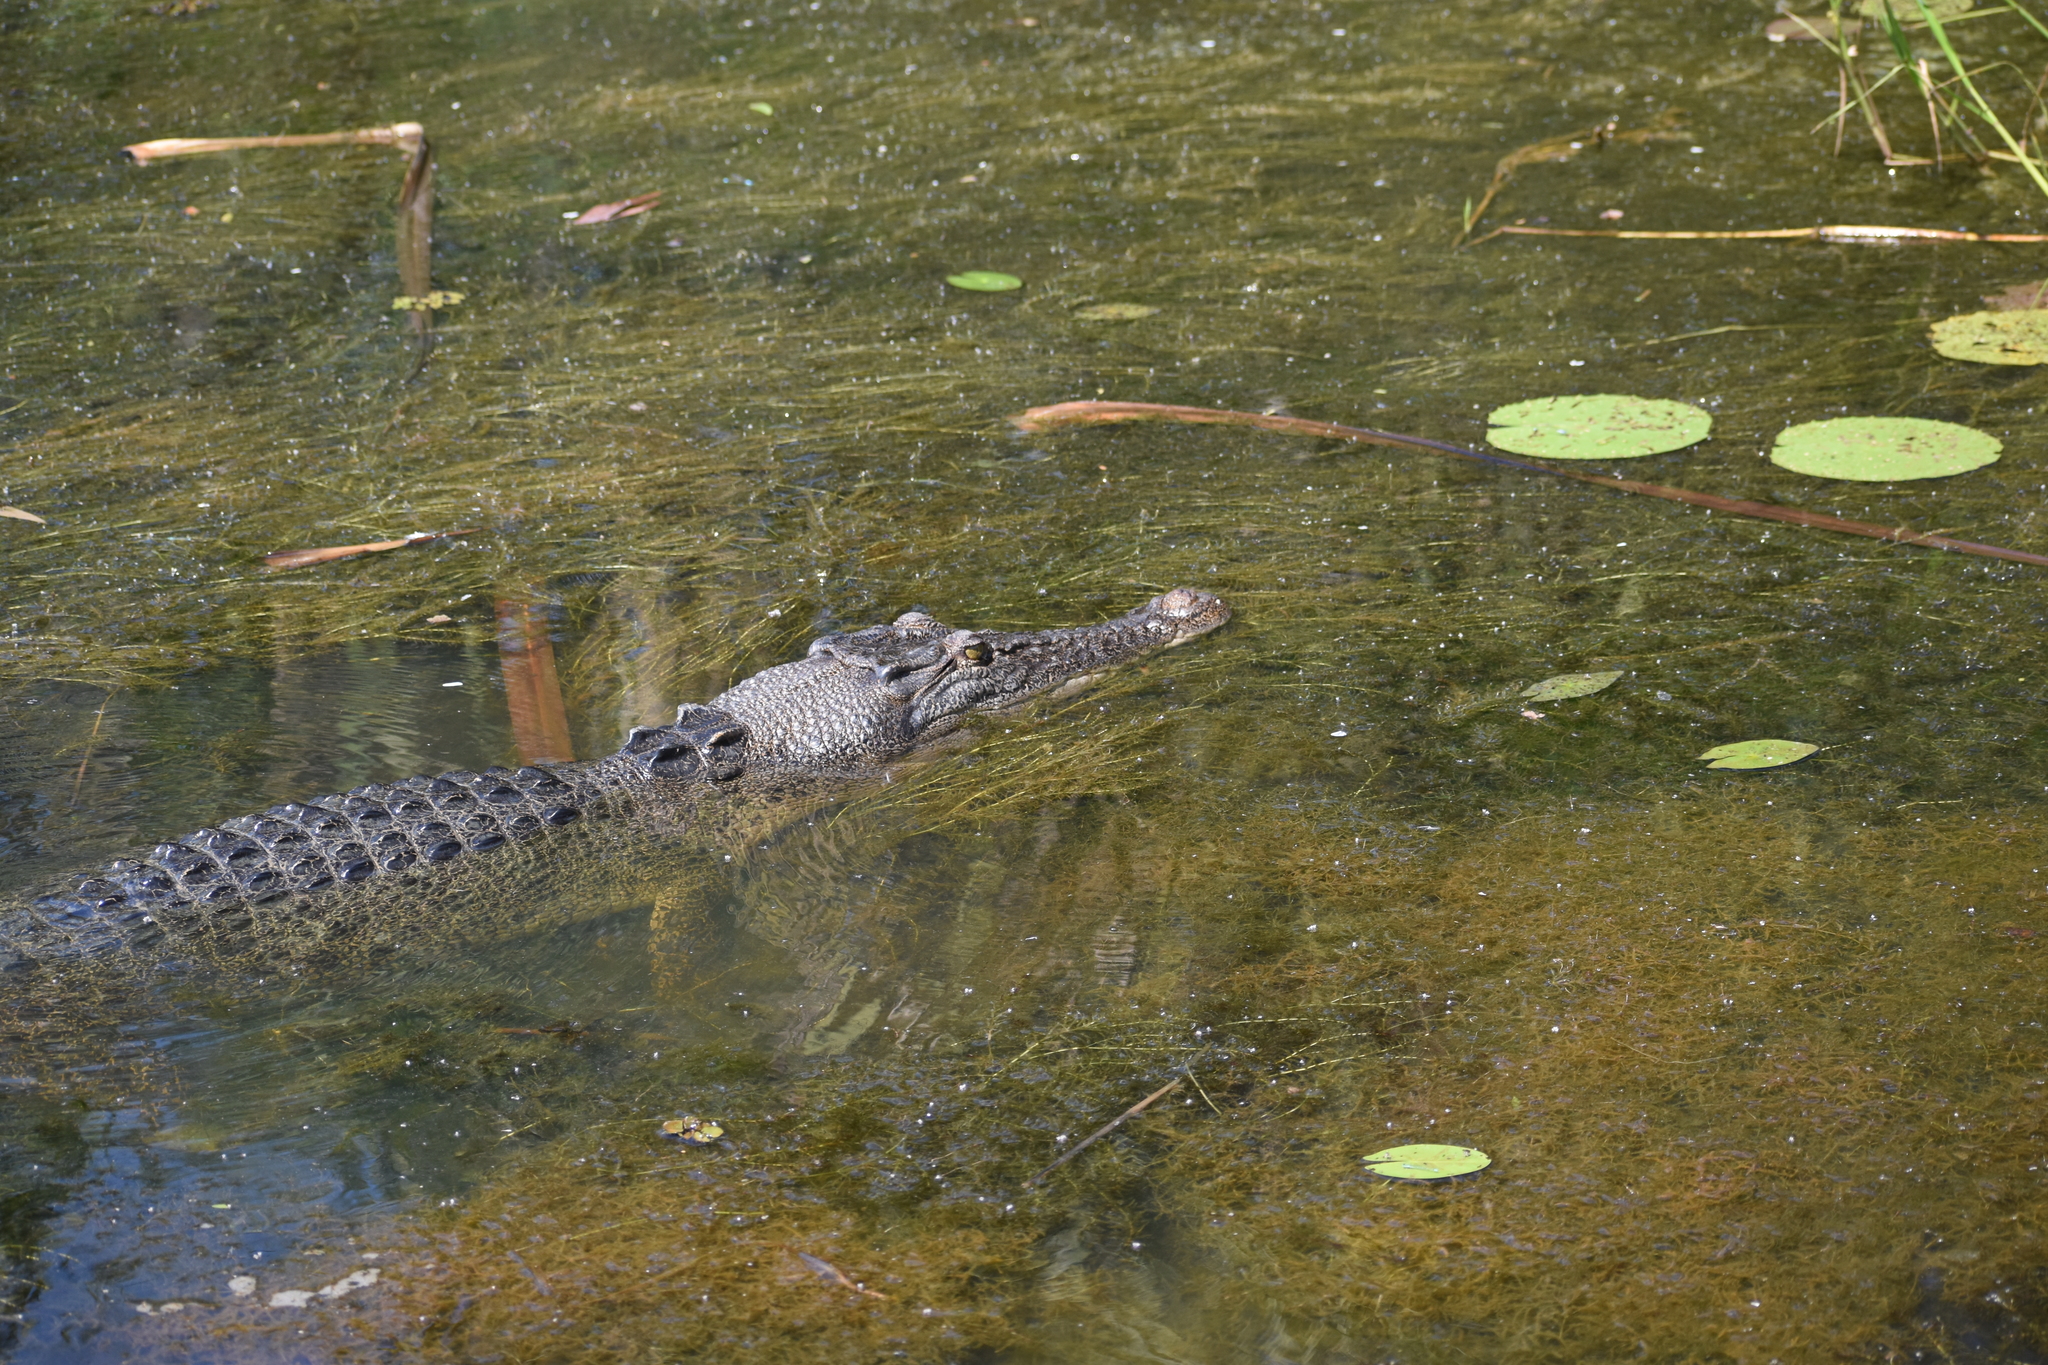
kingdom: Animalia
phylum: Chordata
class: Crocodylia
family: Crocodylidae
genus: Crocodylus
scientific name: Crocodylus porosus
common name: Saltwater crocodile
